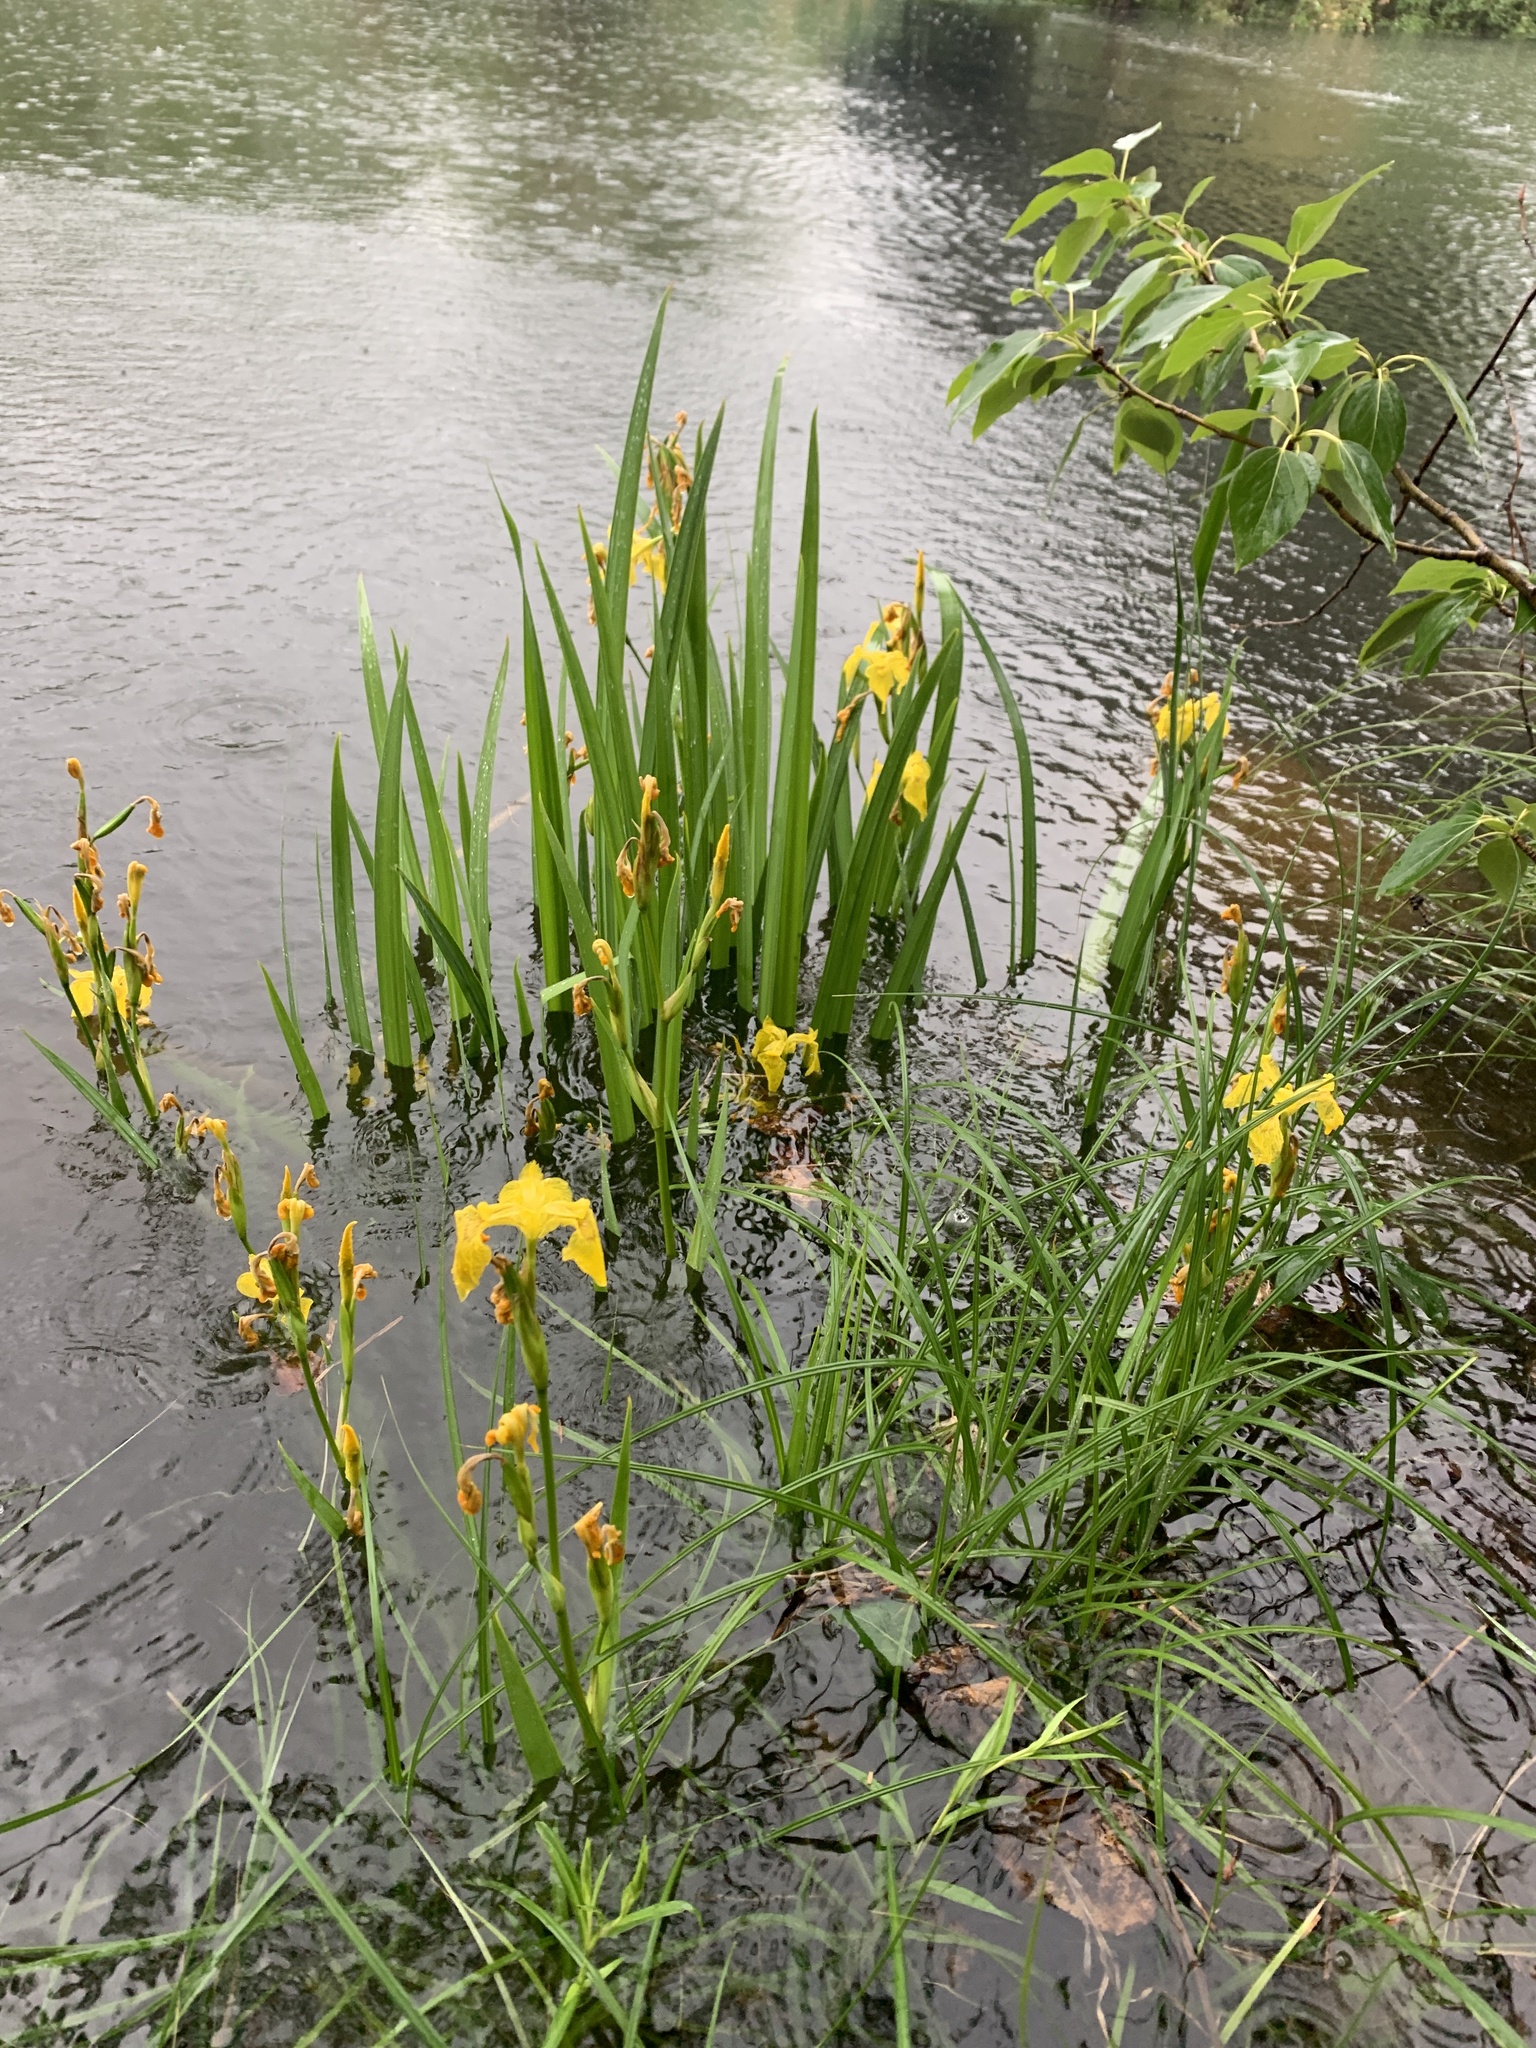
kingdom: Plantae
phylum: Tracheophyta
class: Liliopsida
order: Asparagales
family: Iridaceae
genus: Iris
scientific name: Iris pseudacorus
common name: Yellow flag
